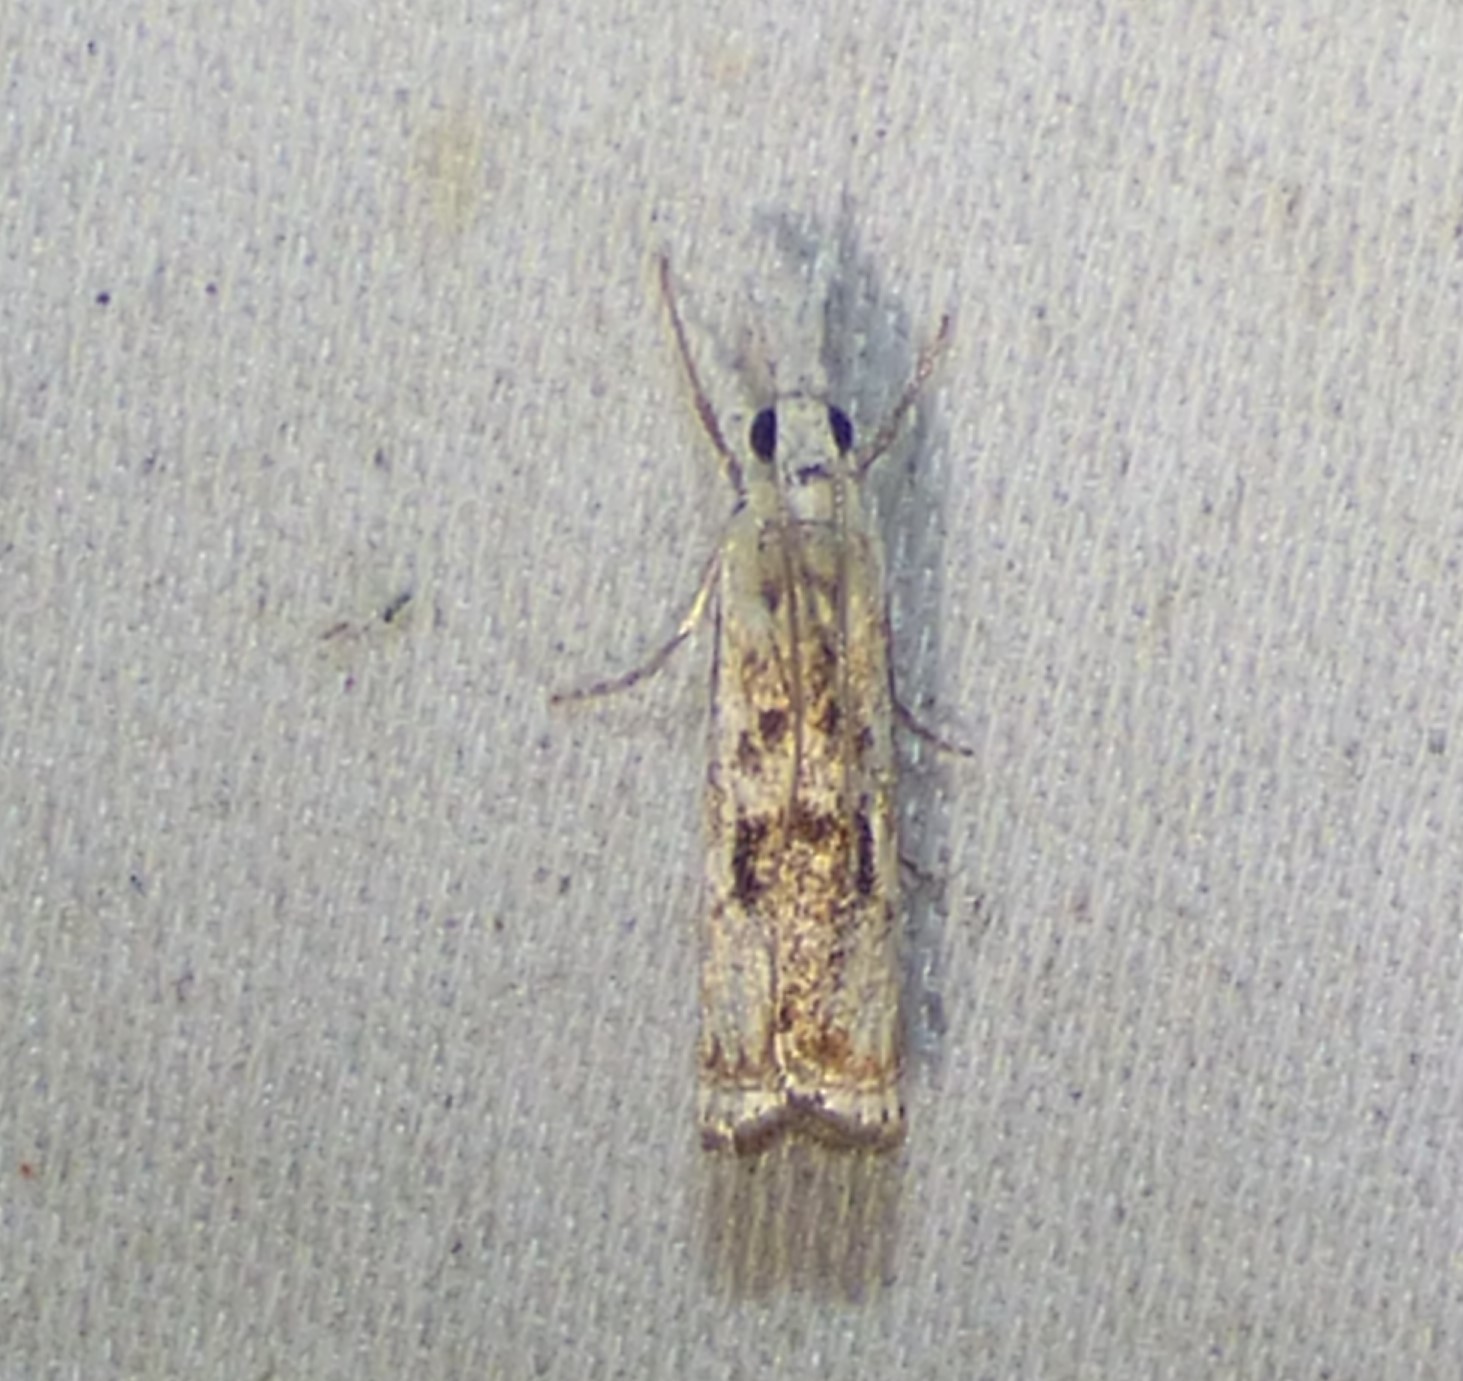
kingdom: Animalia
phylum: Arthropoda
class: Insecta
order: Lepidoptera
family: Crambidae
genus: Microcrambus
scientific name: Microcrambus immunellus
